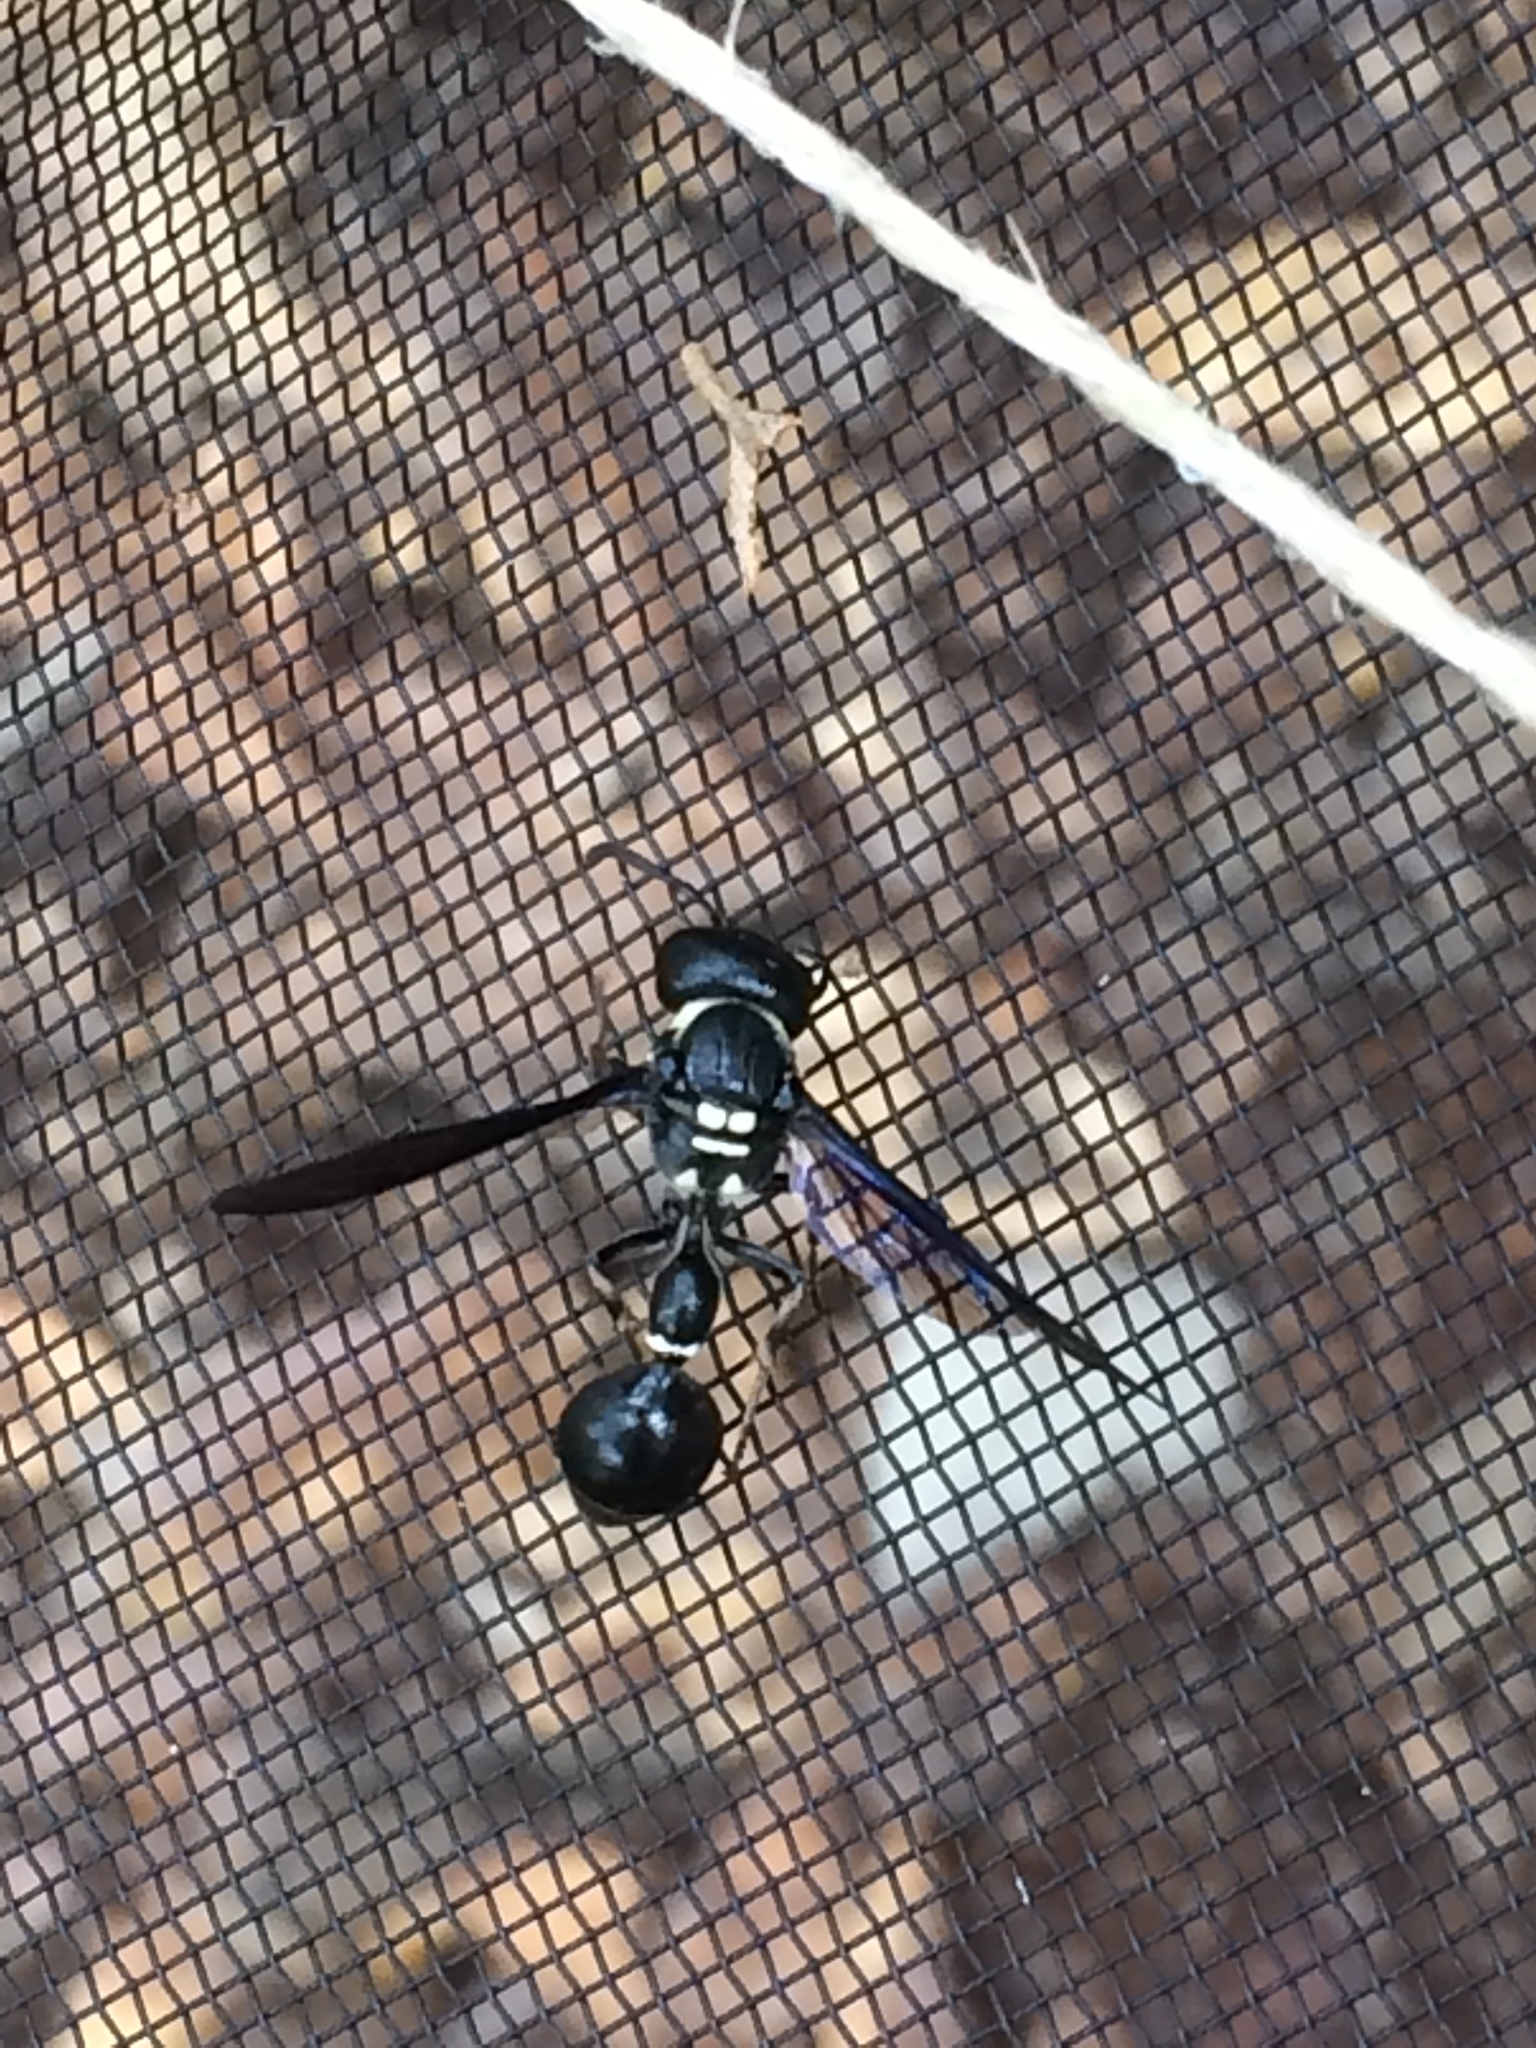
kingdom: Animalia
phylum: Arthropoda
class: Insecta
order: Hymenoptera
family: Eumenidae
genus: Zethus
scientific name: Zethus spinipes
